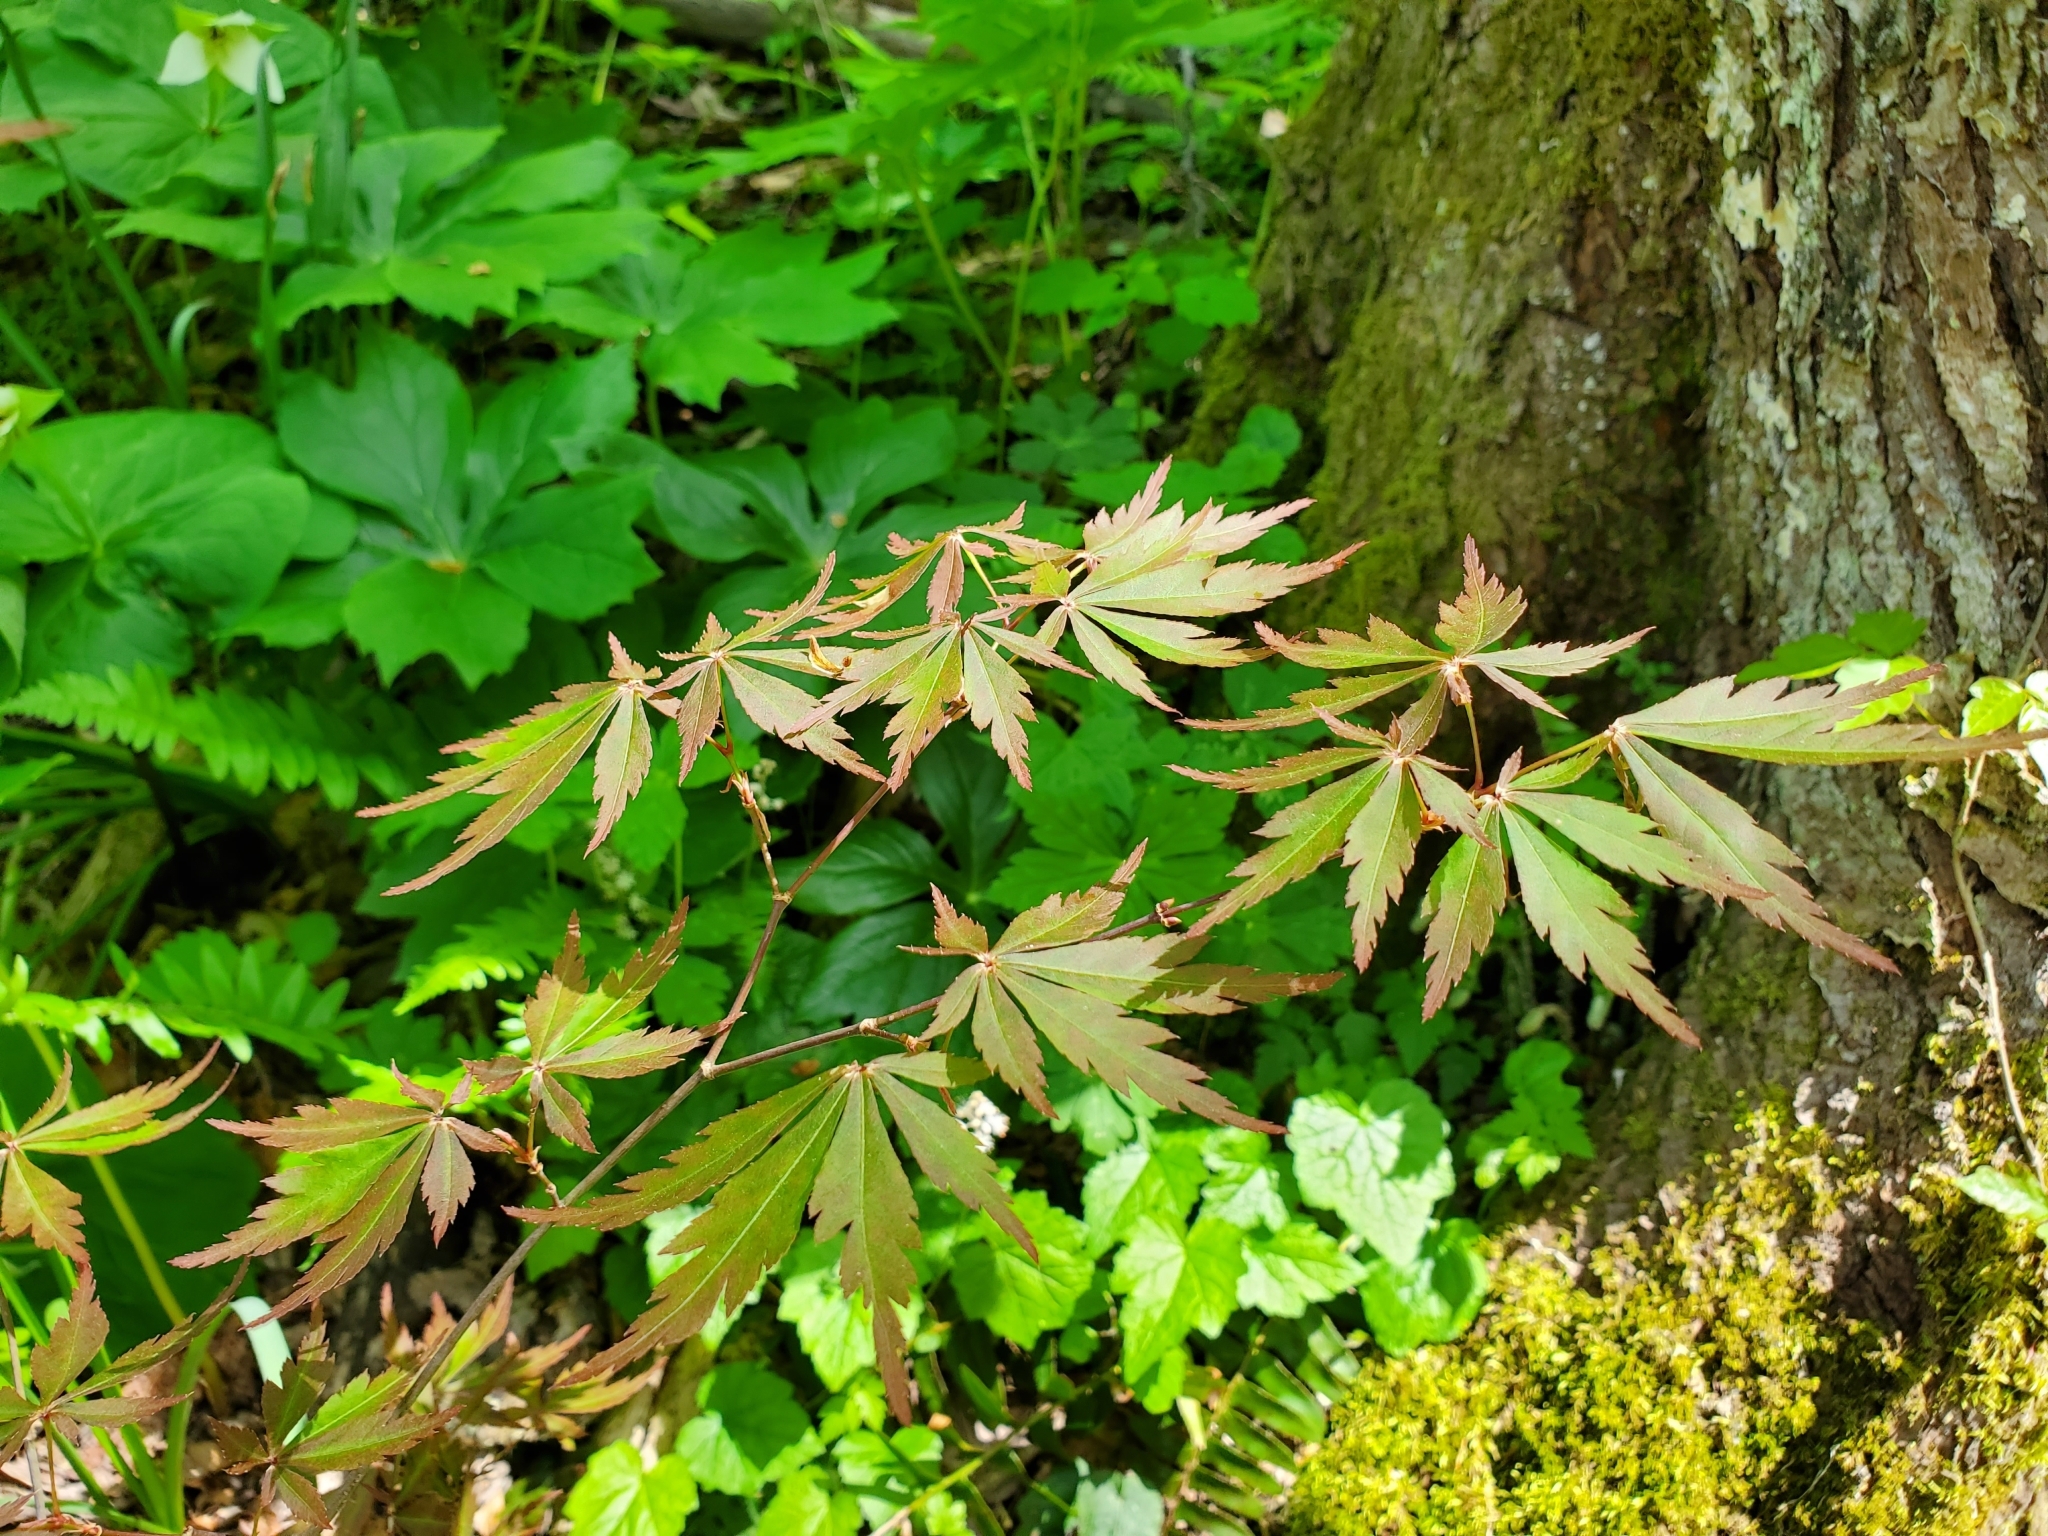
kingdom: Plantae
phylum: Tracheophyta
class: Magnoliopsida
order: Sapindales
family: Sapindaceae
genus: Acer
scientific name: Acer palmatum
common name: Japanese maple
